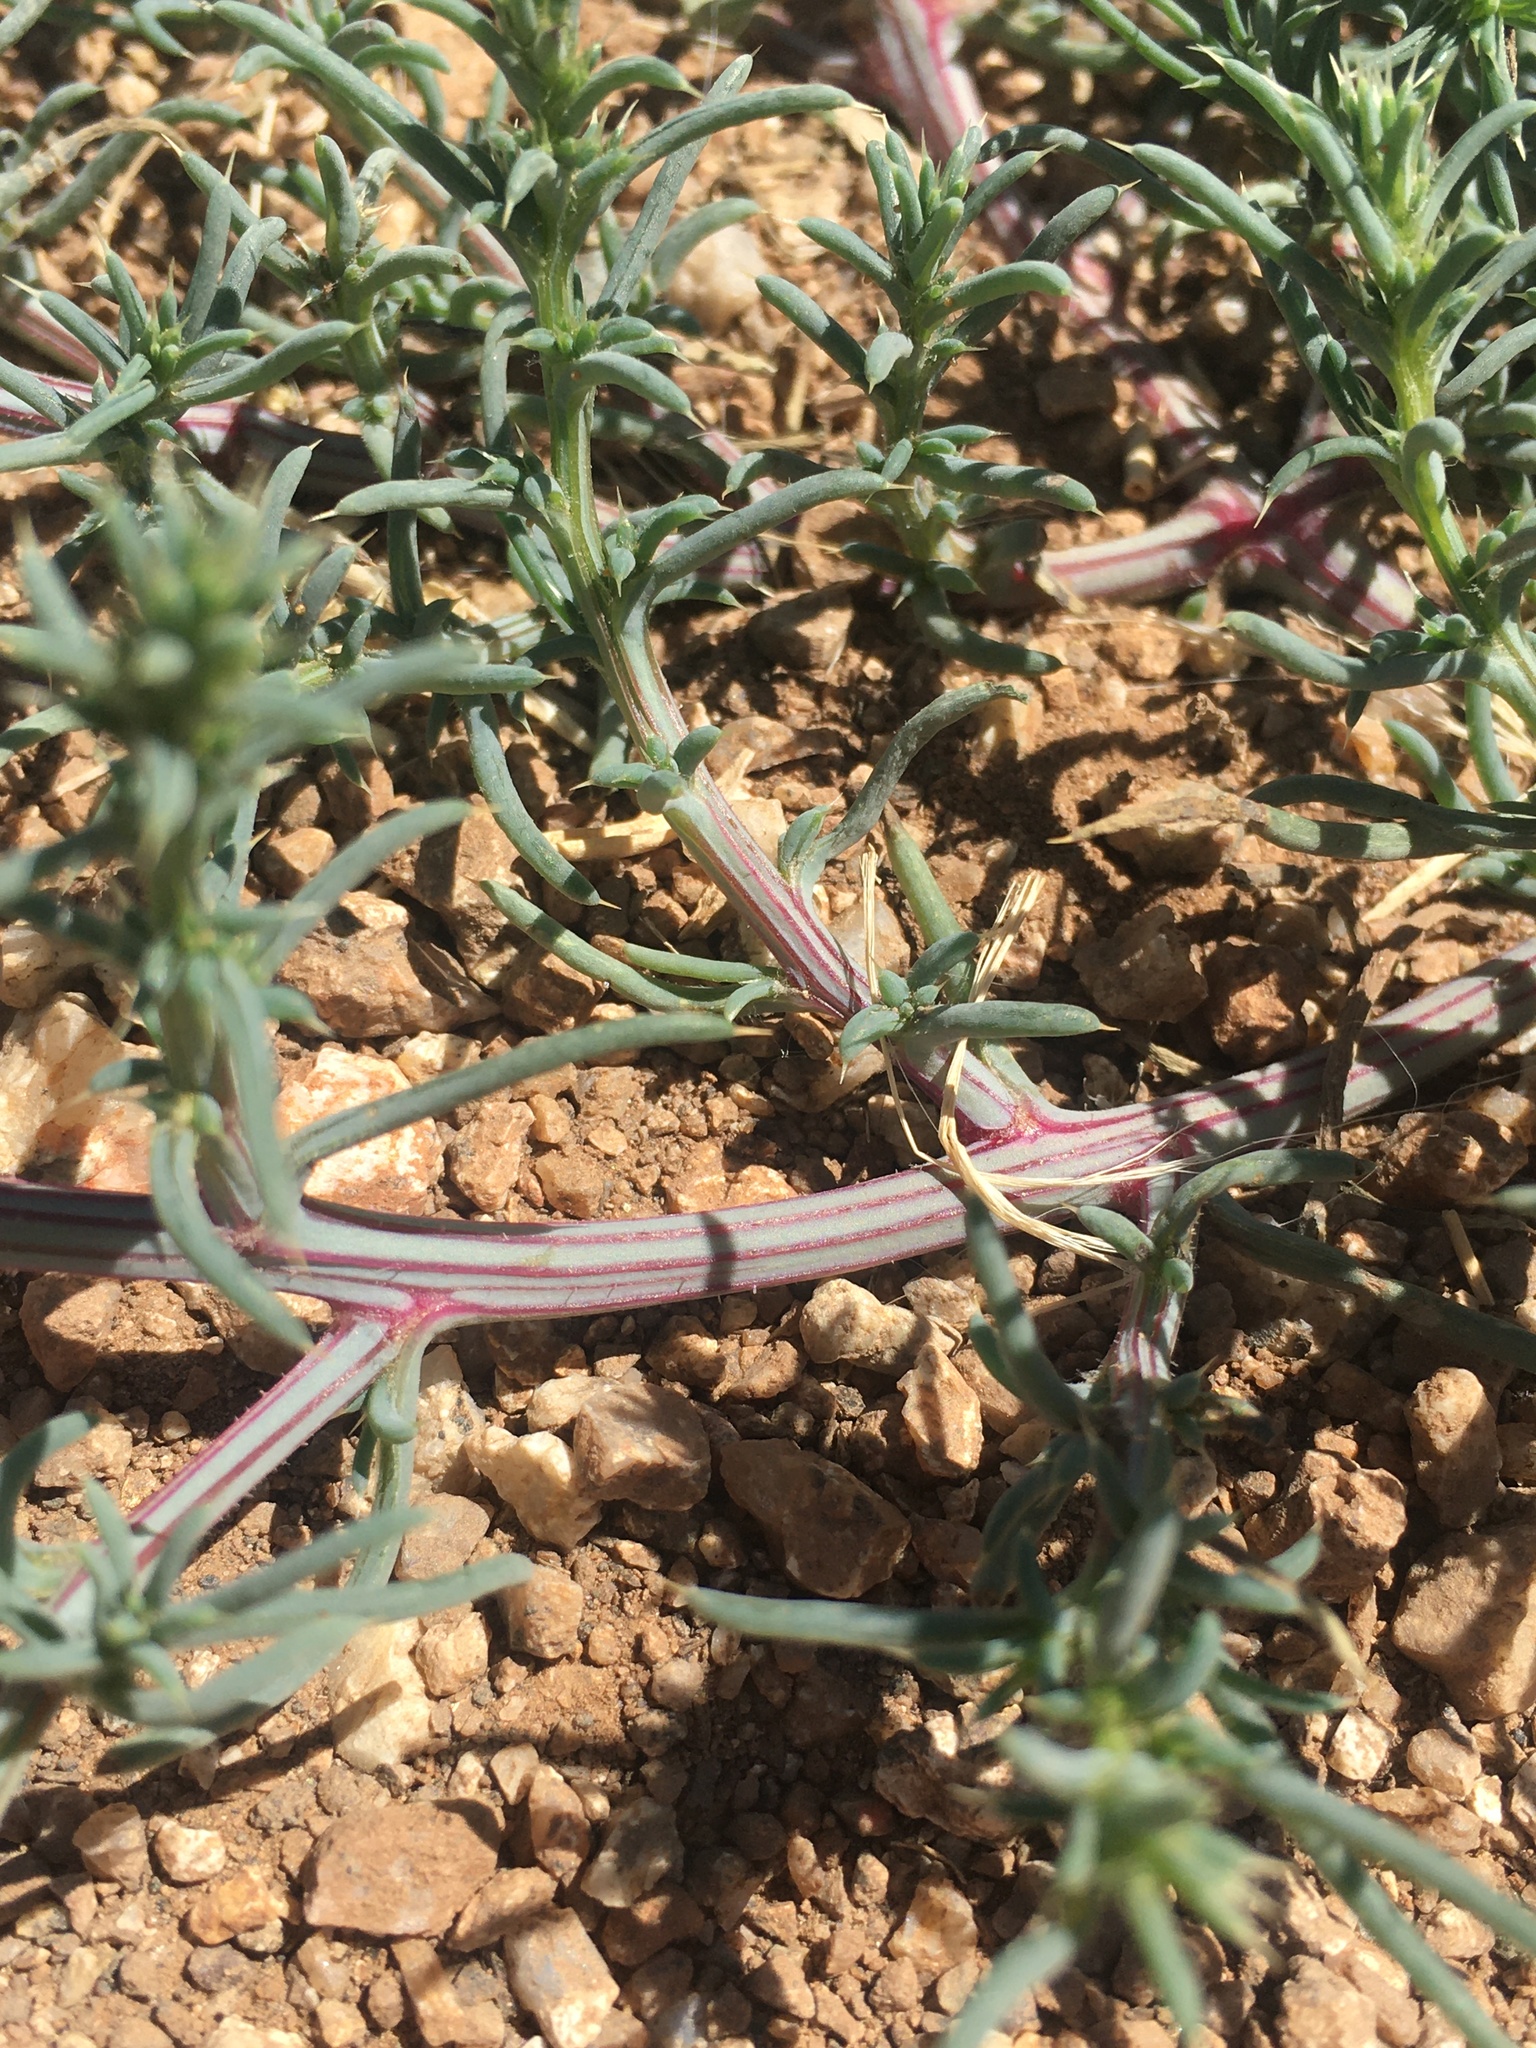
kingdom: Plantae
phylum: Tracheophyta
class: Magnoliopsida
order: Caryophyllales
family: Amaranthaceae
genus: Salsola
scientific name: Salsola tragus
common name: Prickly russian thistle
